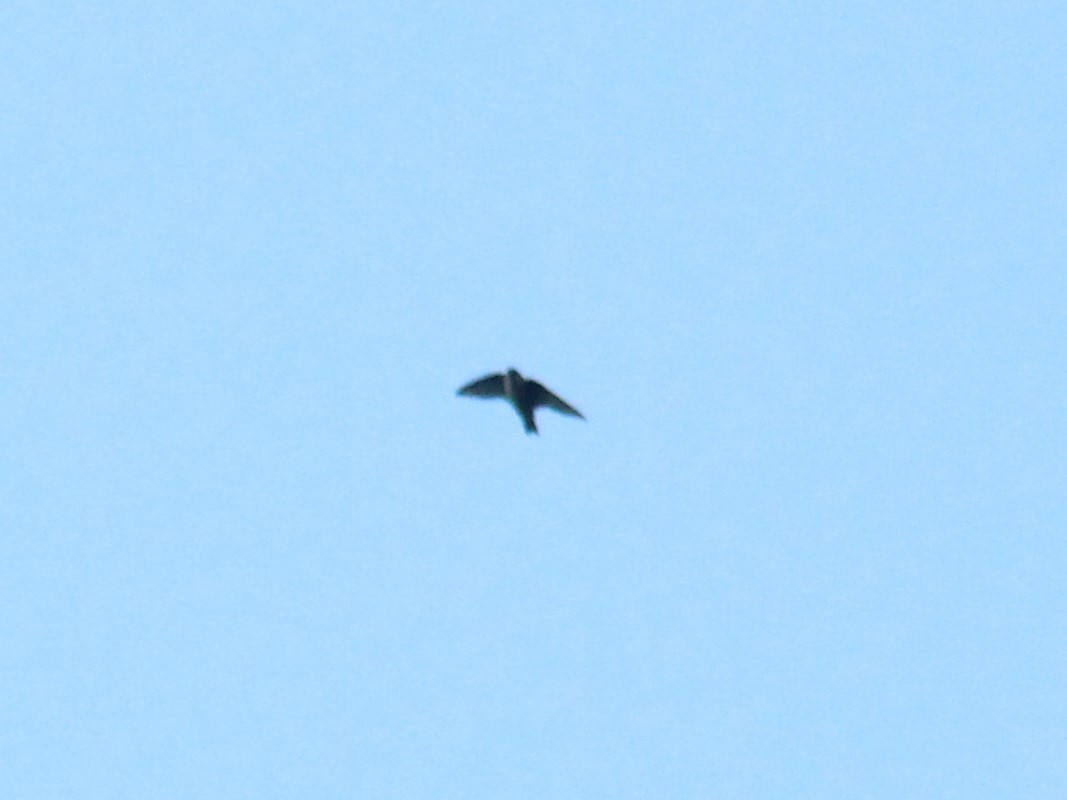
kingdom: Animalia
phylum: Chordata
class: Aves
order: Passeriformes
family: Hirundinidae
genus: Ptyonoprogne
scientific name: Ptyonoprogne rupestris
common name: Eurasian crag martin
